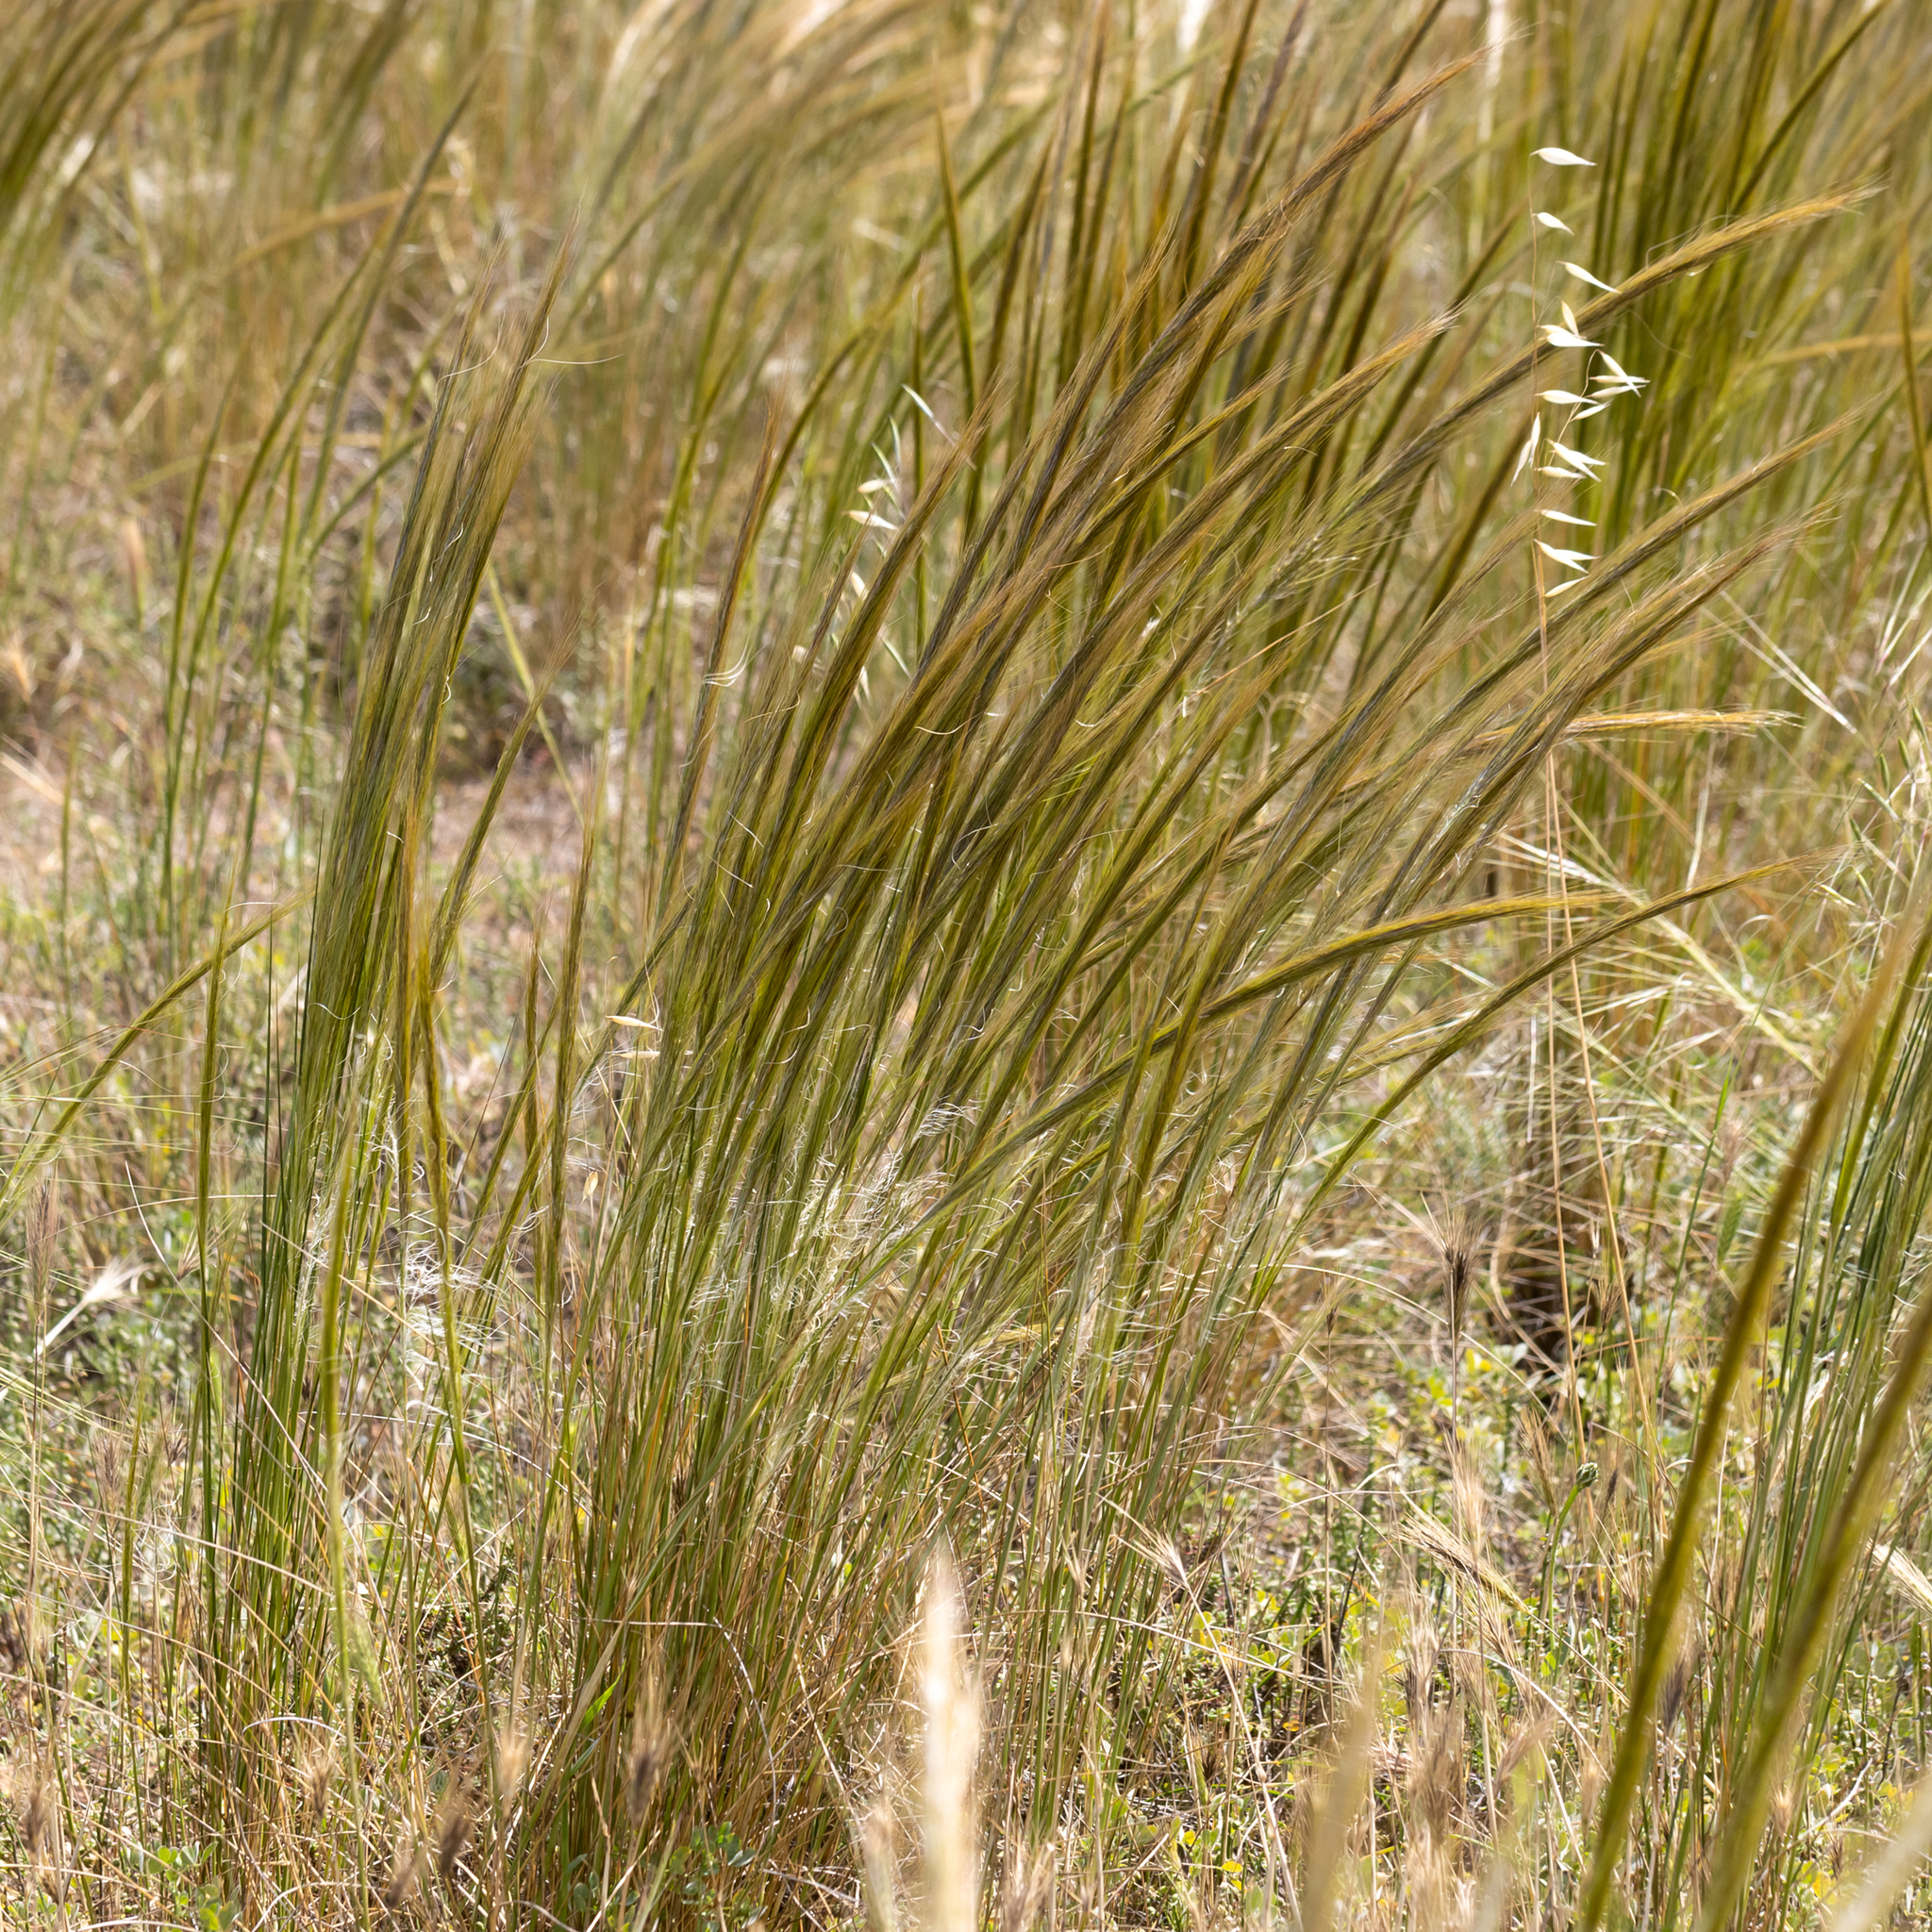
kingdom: Plantae
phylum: Tracheophyta
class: Liliopsida
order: Poales
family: Poaceae
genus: Austrostipa
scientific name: Austrostipa nitida
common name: Balcarra grass
